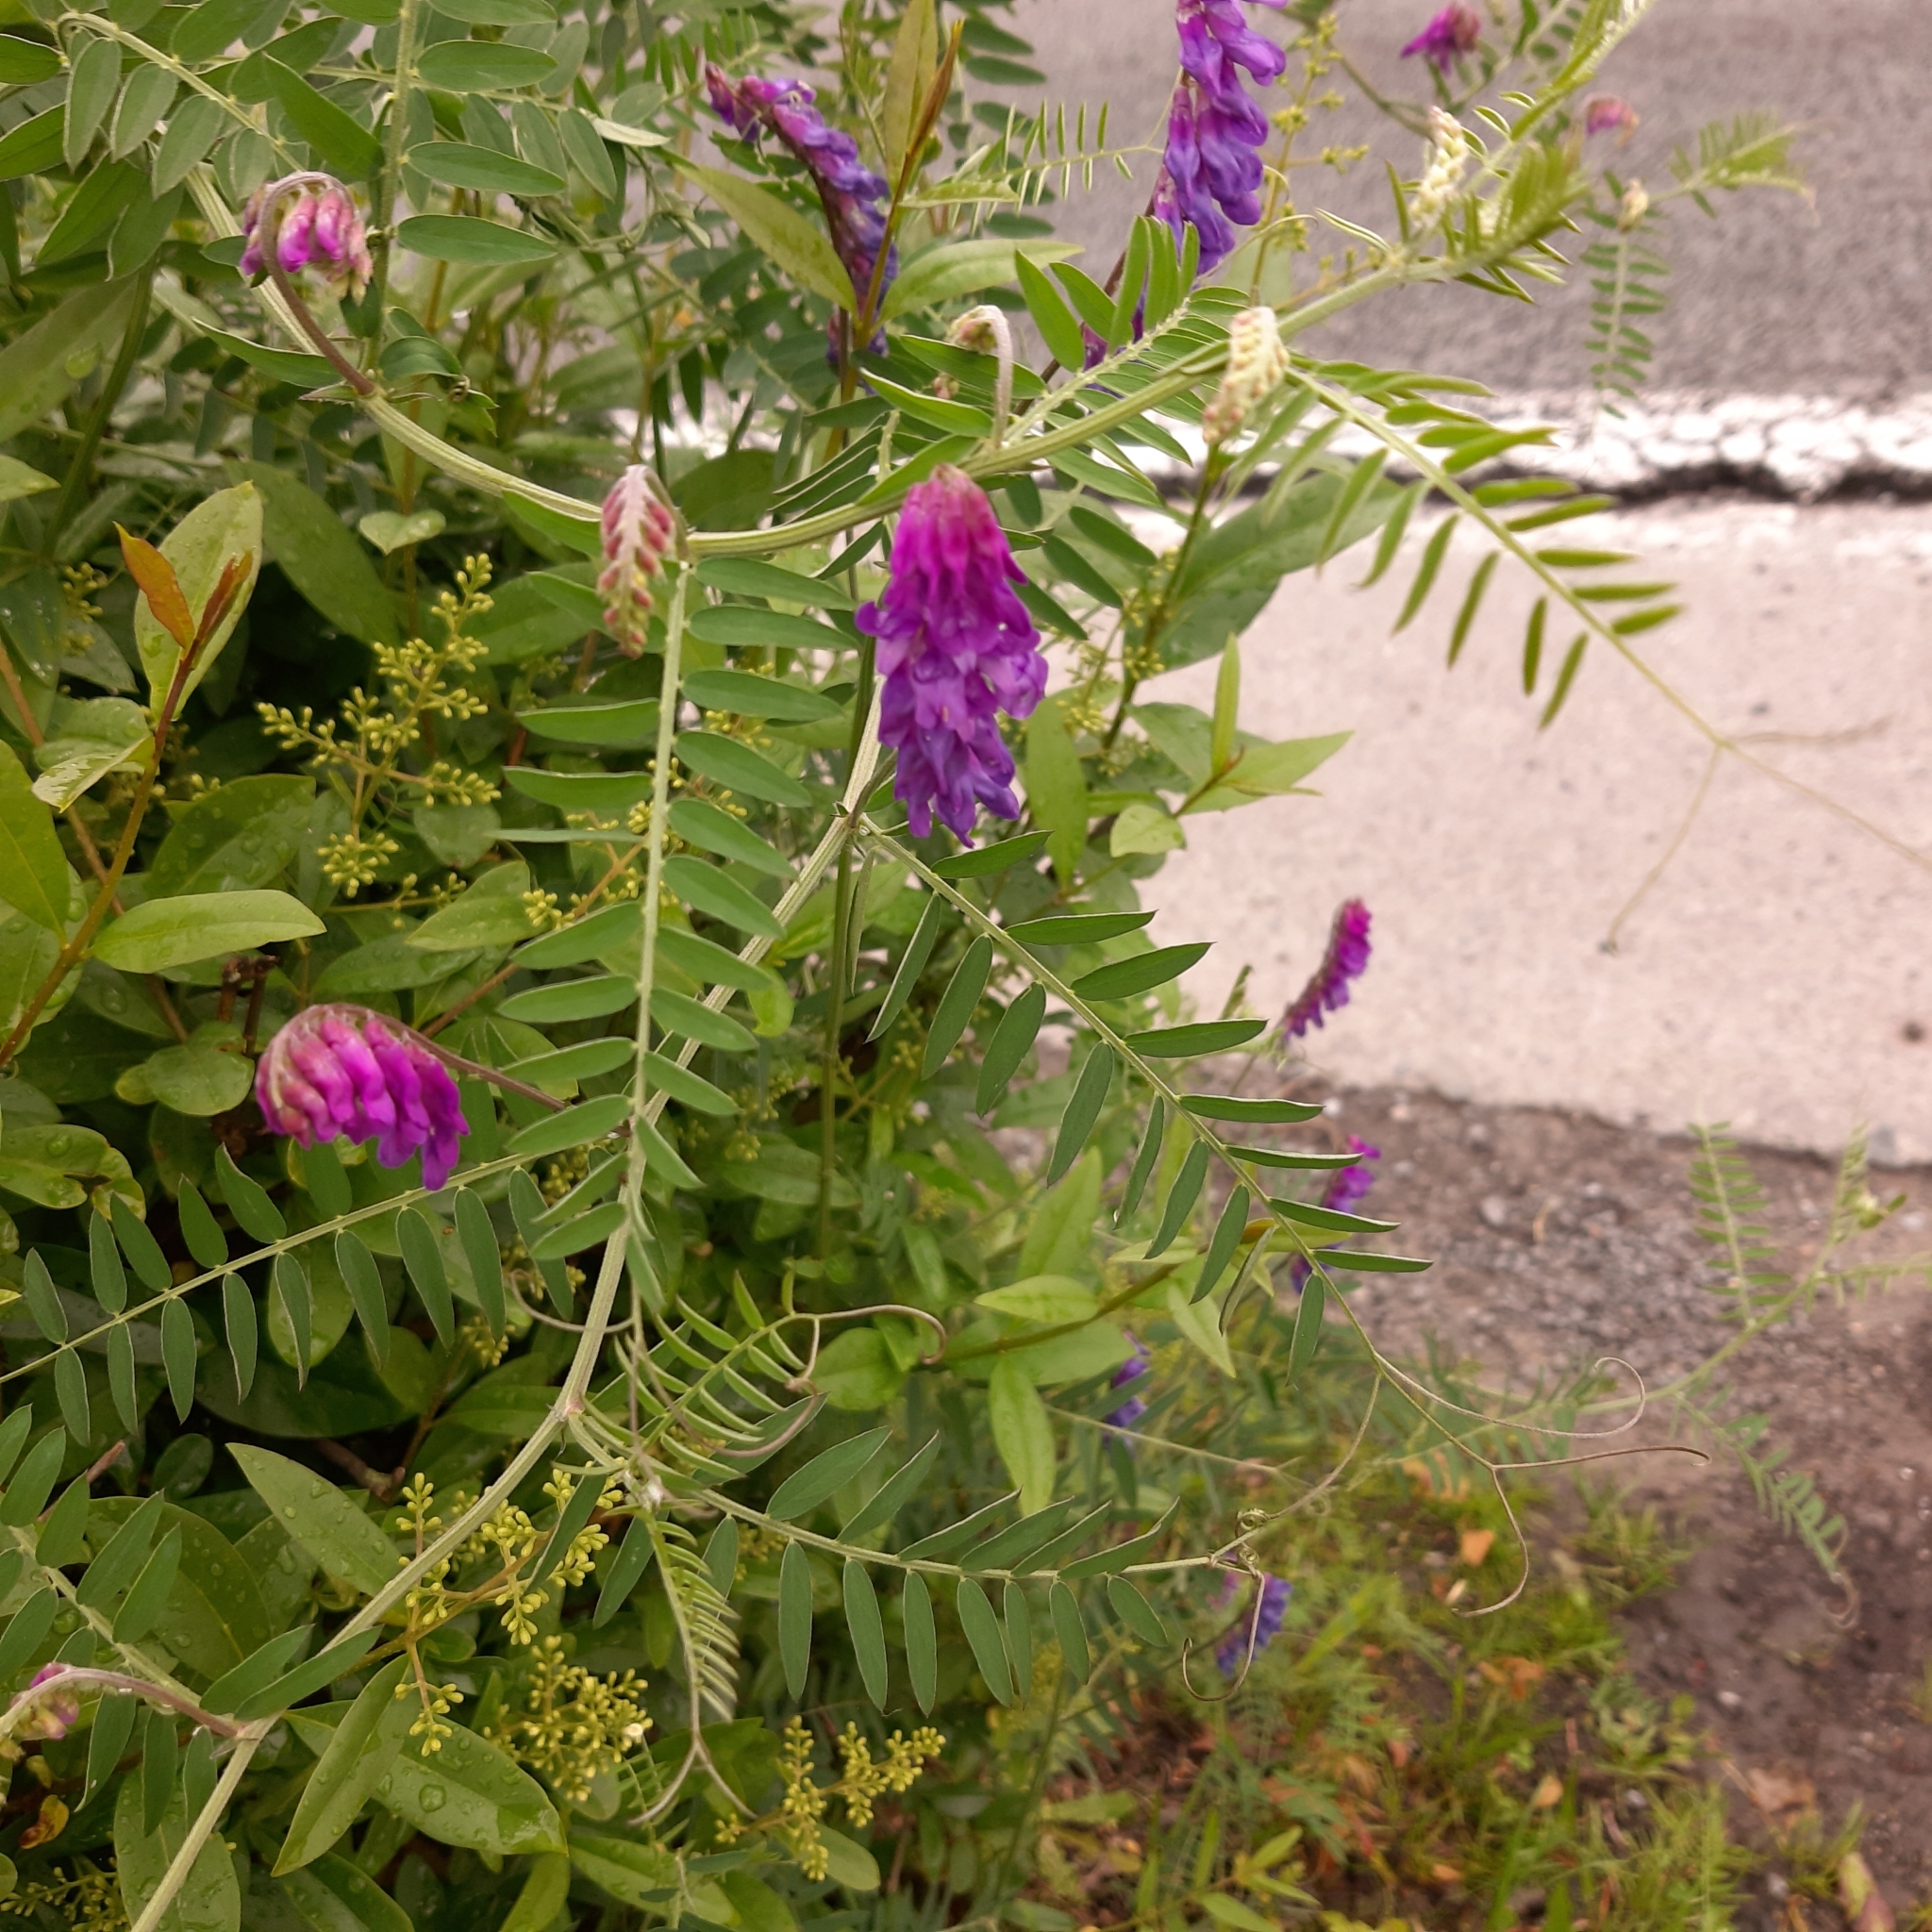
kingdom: Plantae
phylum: Tracheophyta
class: Magnoliopsida
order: Fabales
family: Fabaceae
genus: Vicia
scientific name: Vicia cracca
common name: Bird vetch
